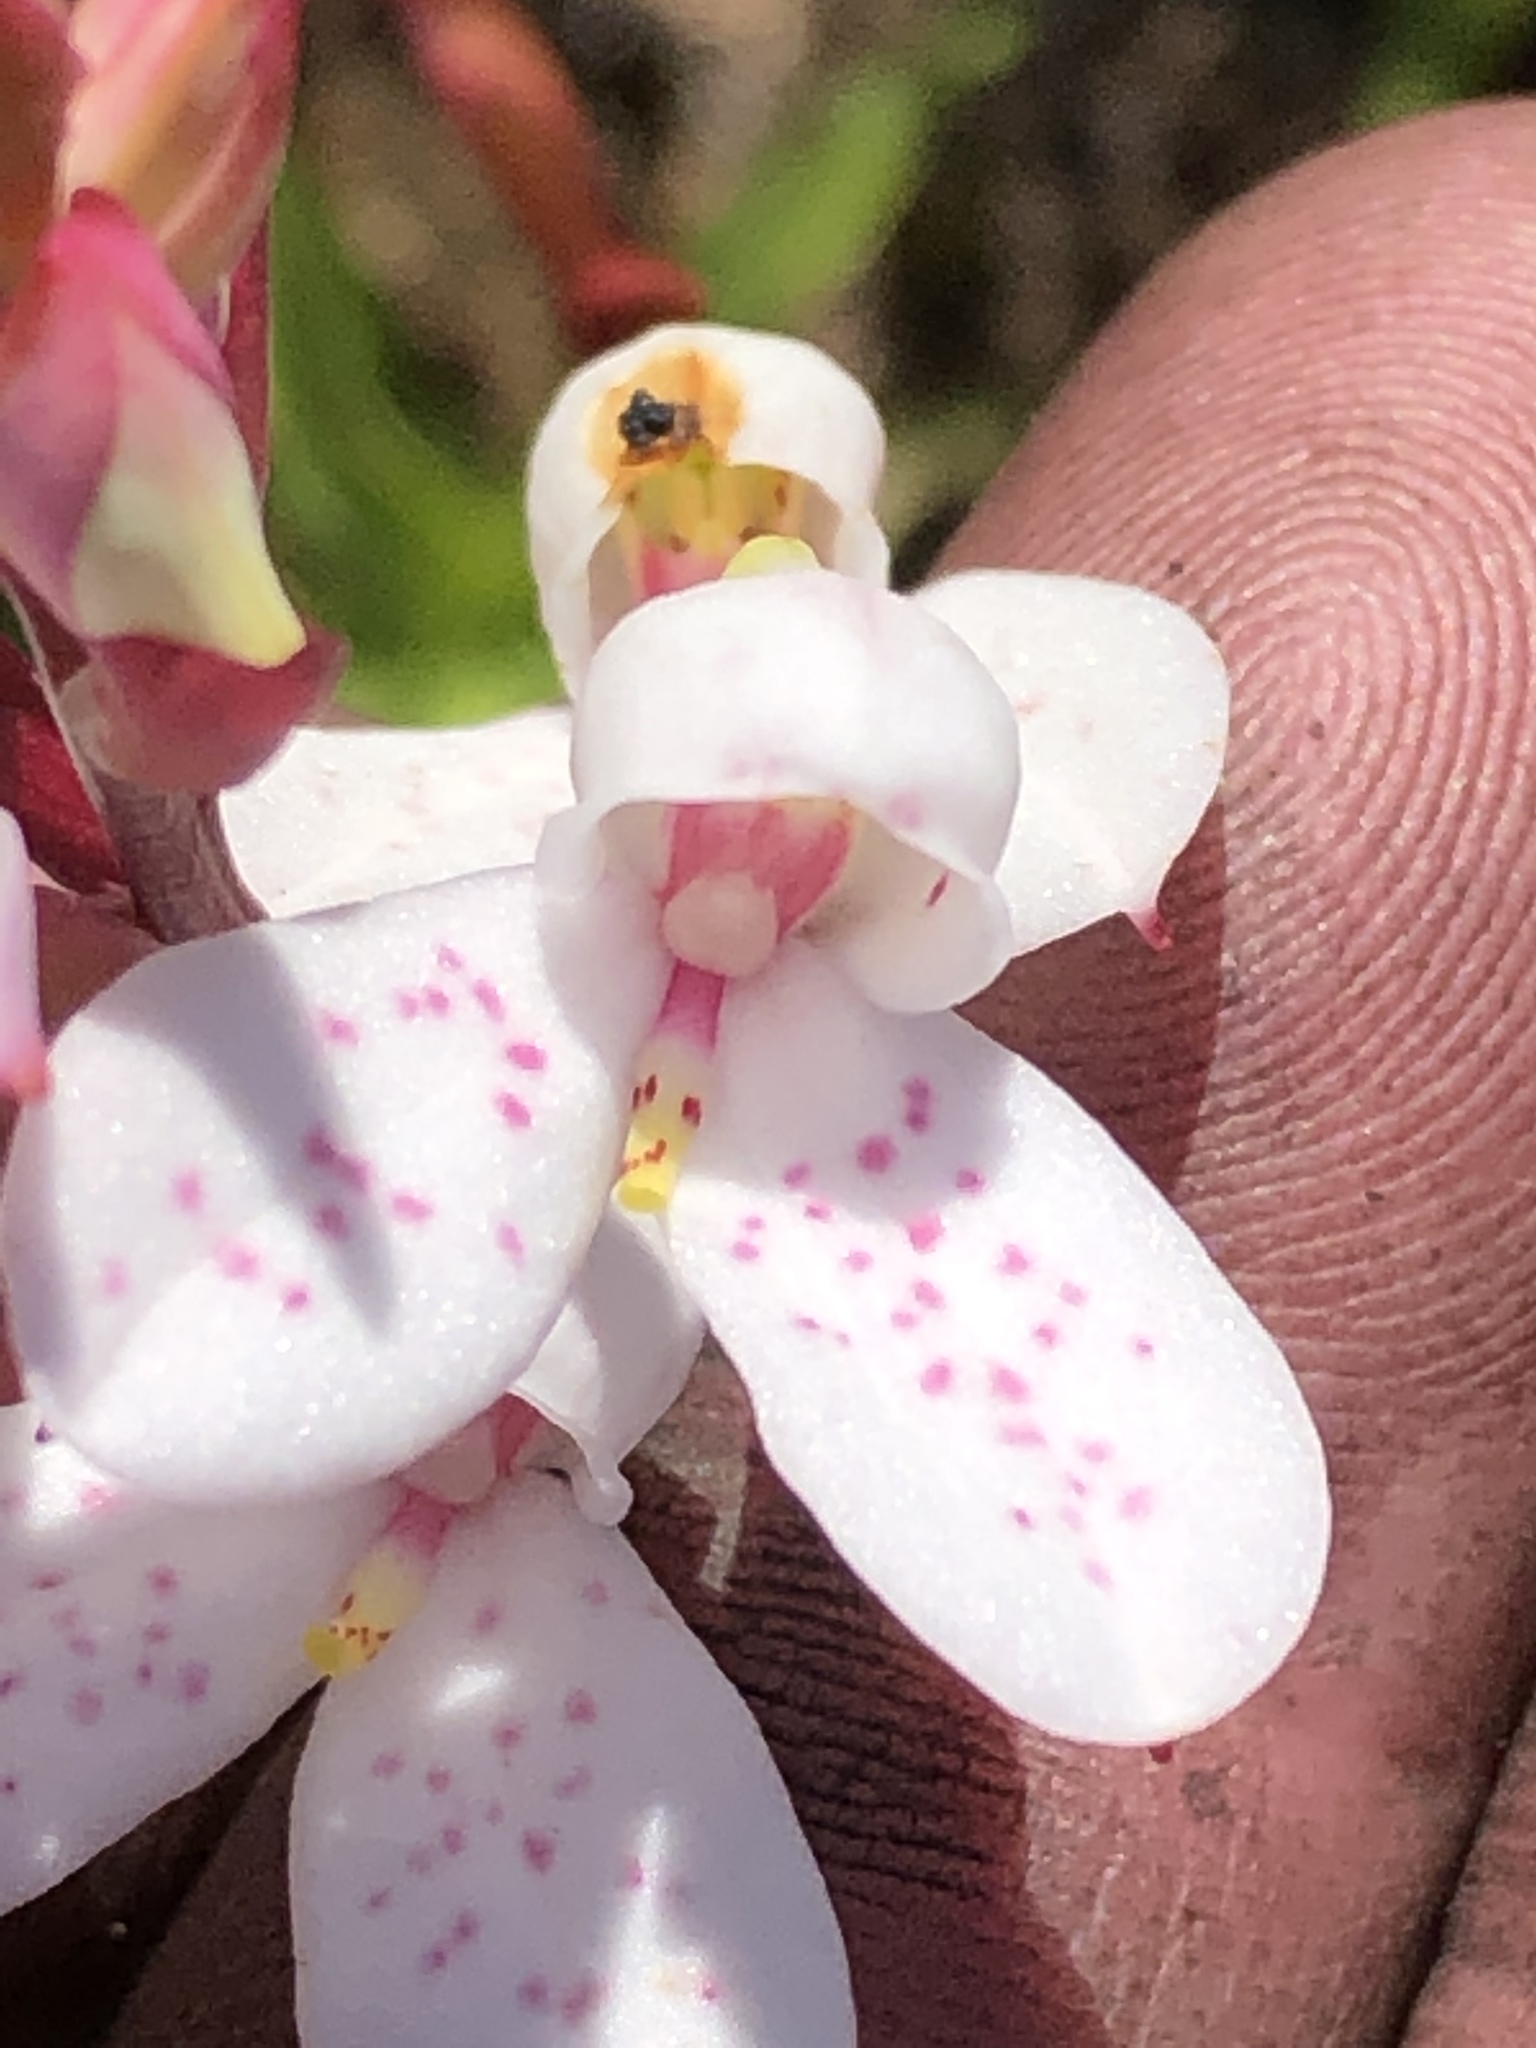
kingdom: Plantae
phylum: Tracheophyta
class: Liliopsida
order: Asparagales
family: Orchidaceae
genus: Disa
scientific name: Disa tripetaloides
